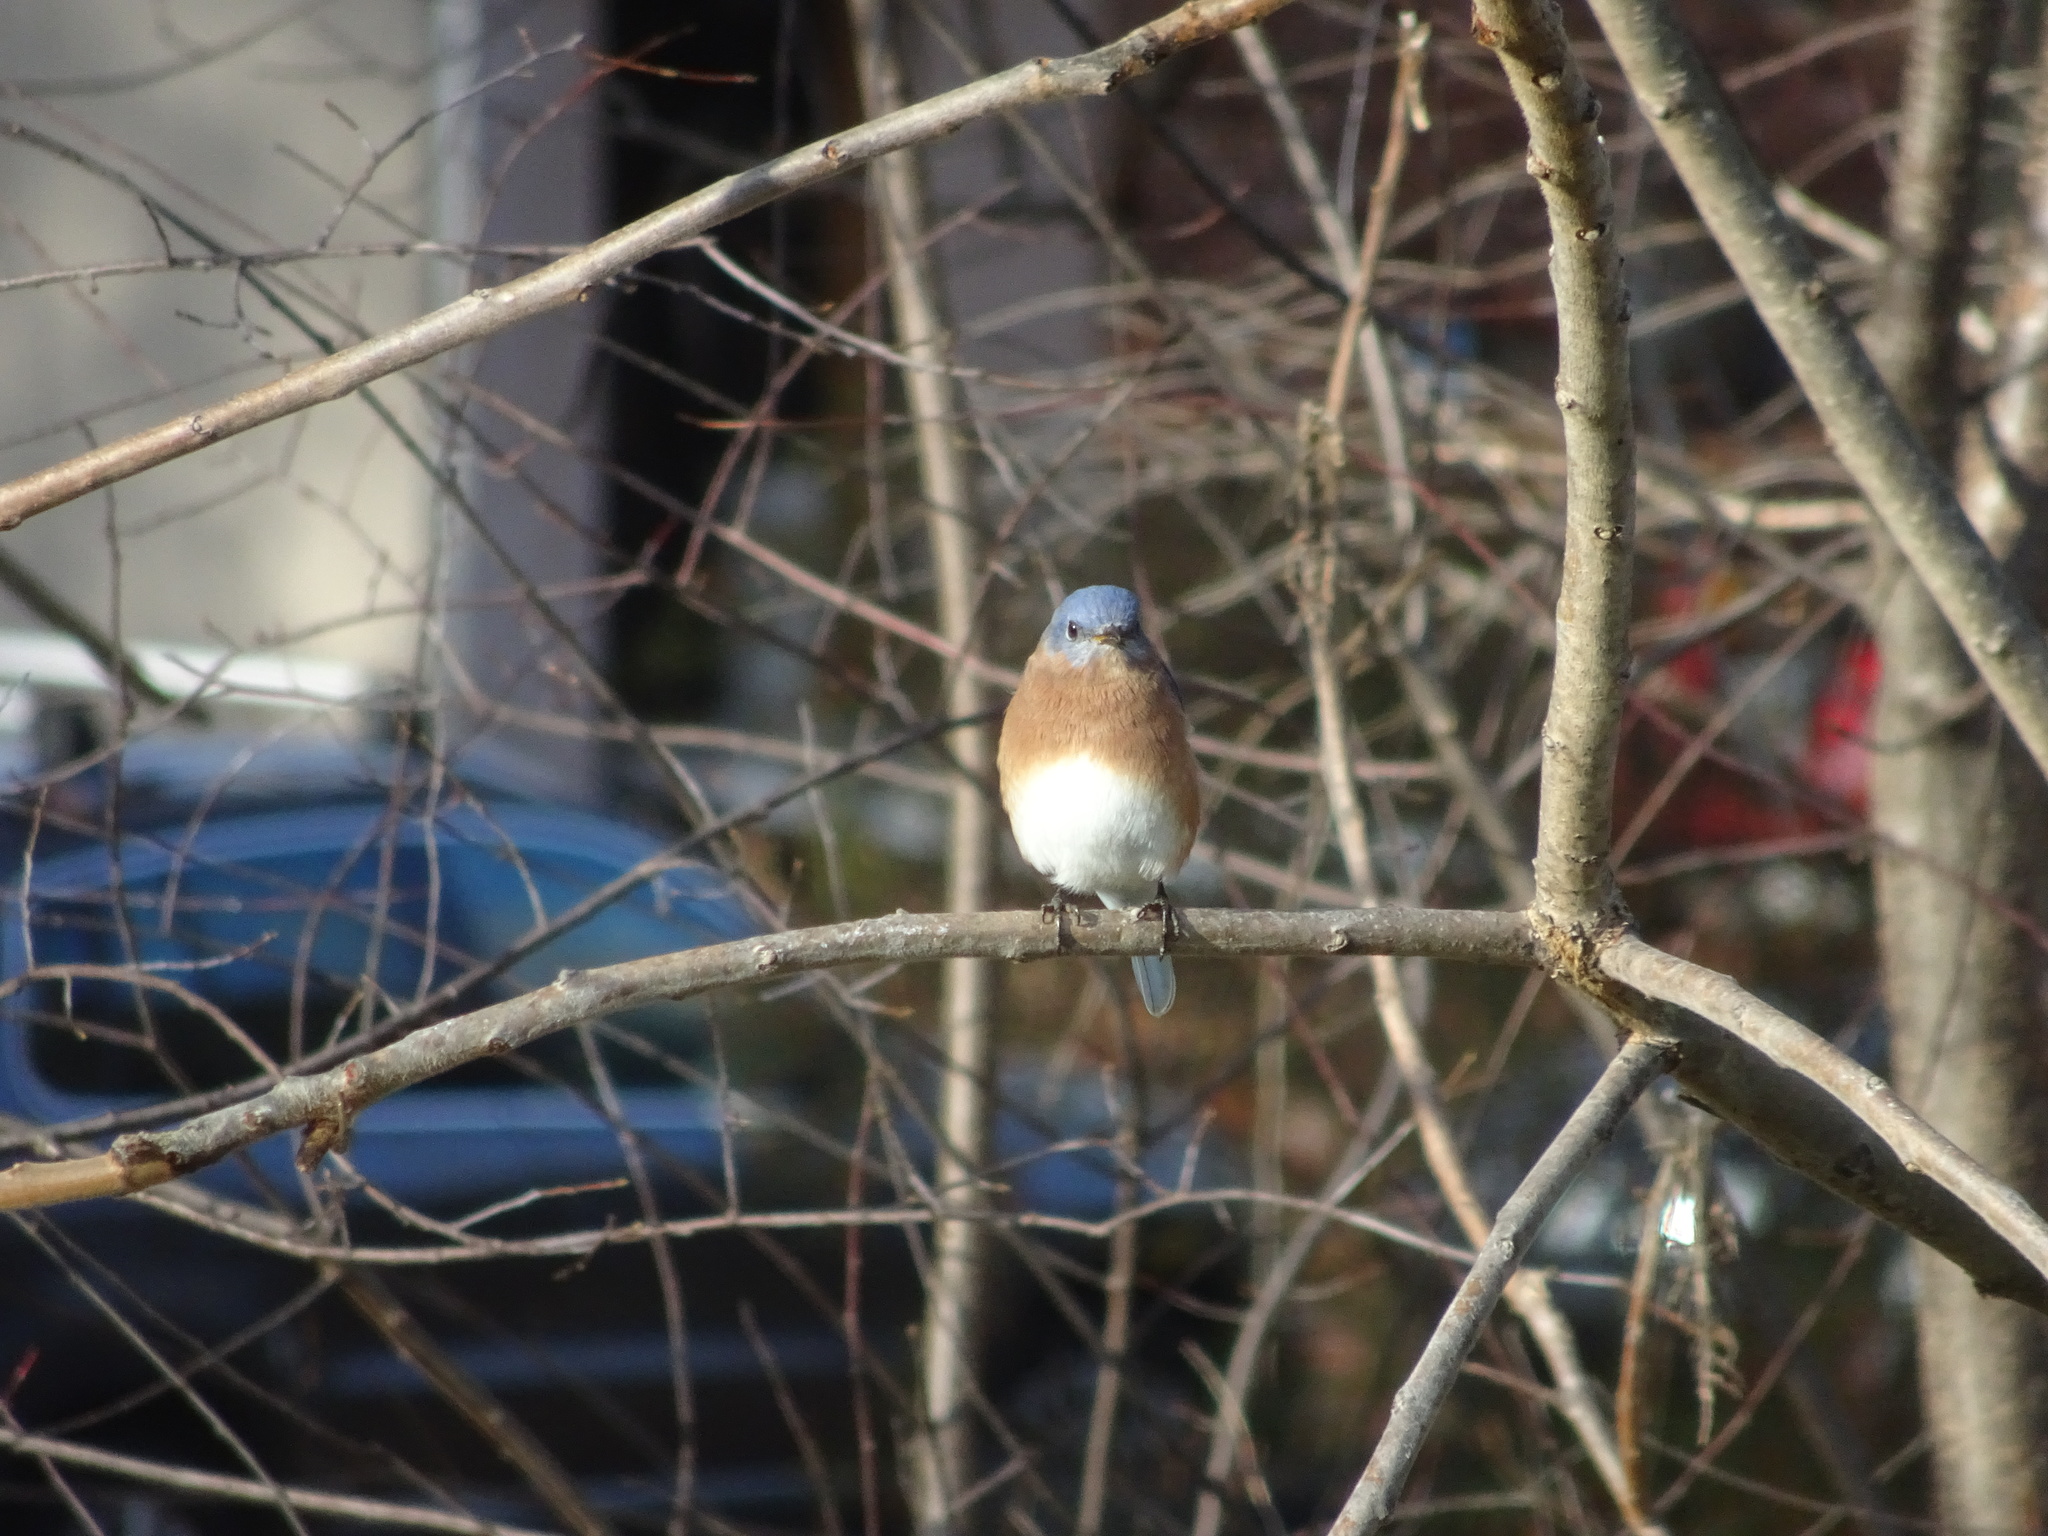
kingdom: Animalia
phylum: Chordata
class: Aves
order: Passeriformes
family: Turdidae
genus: Sialia
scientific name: Sialia sialis
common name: Eastern bluebird
